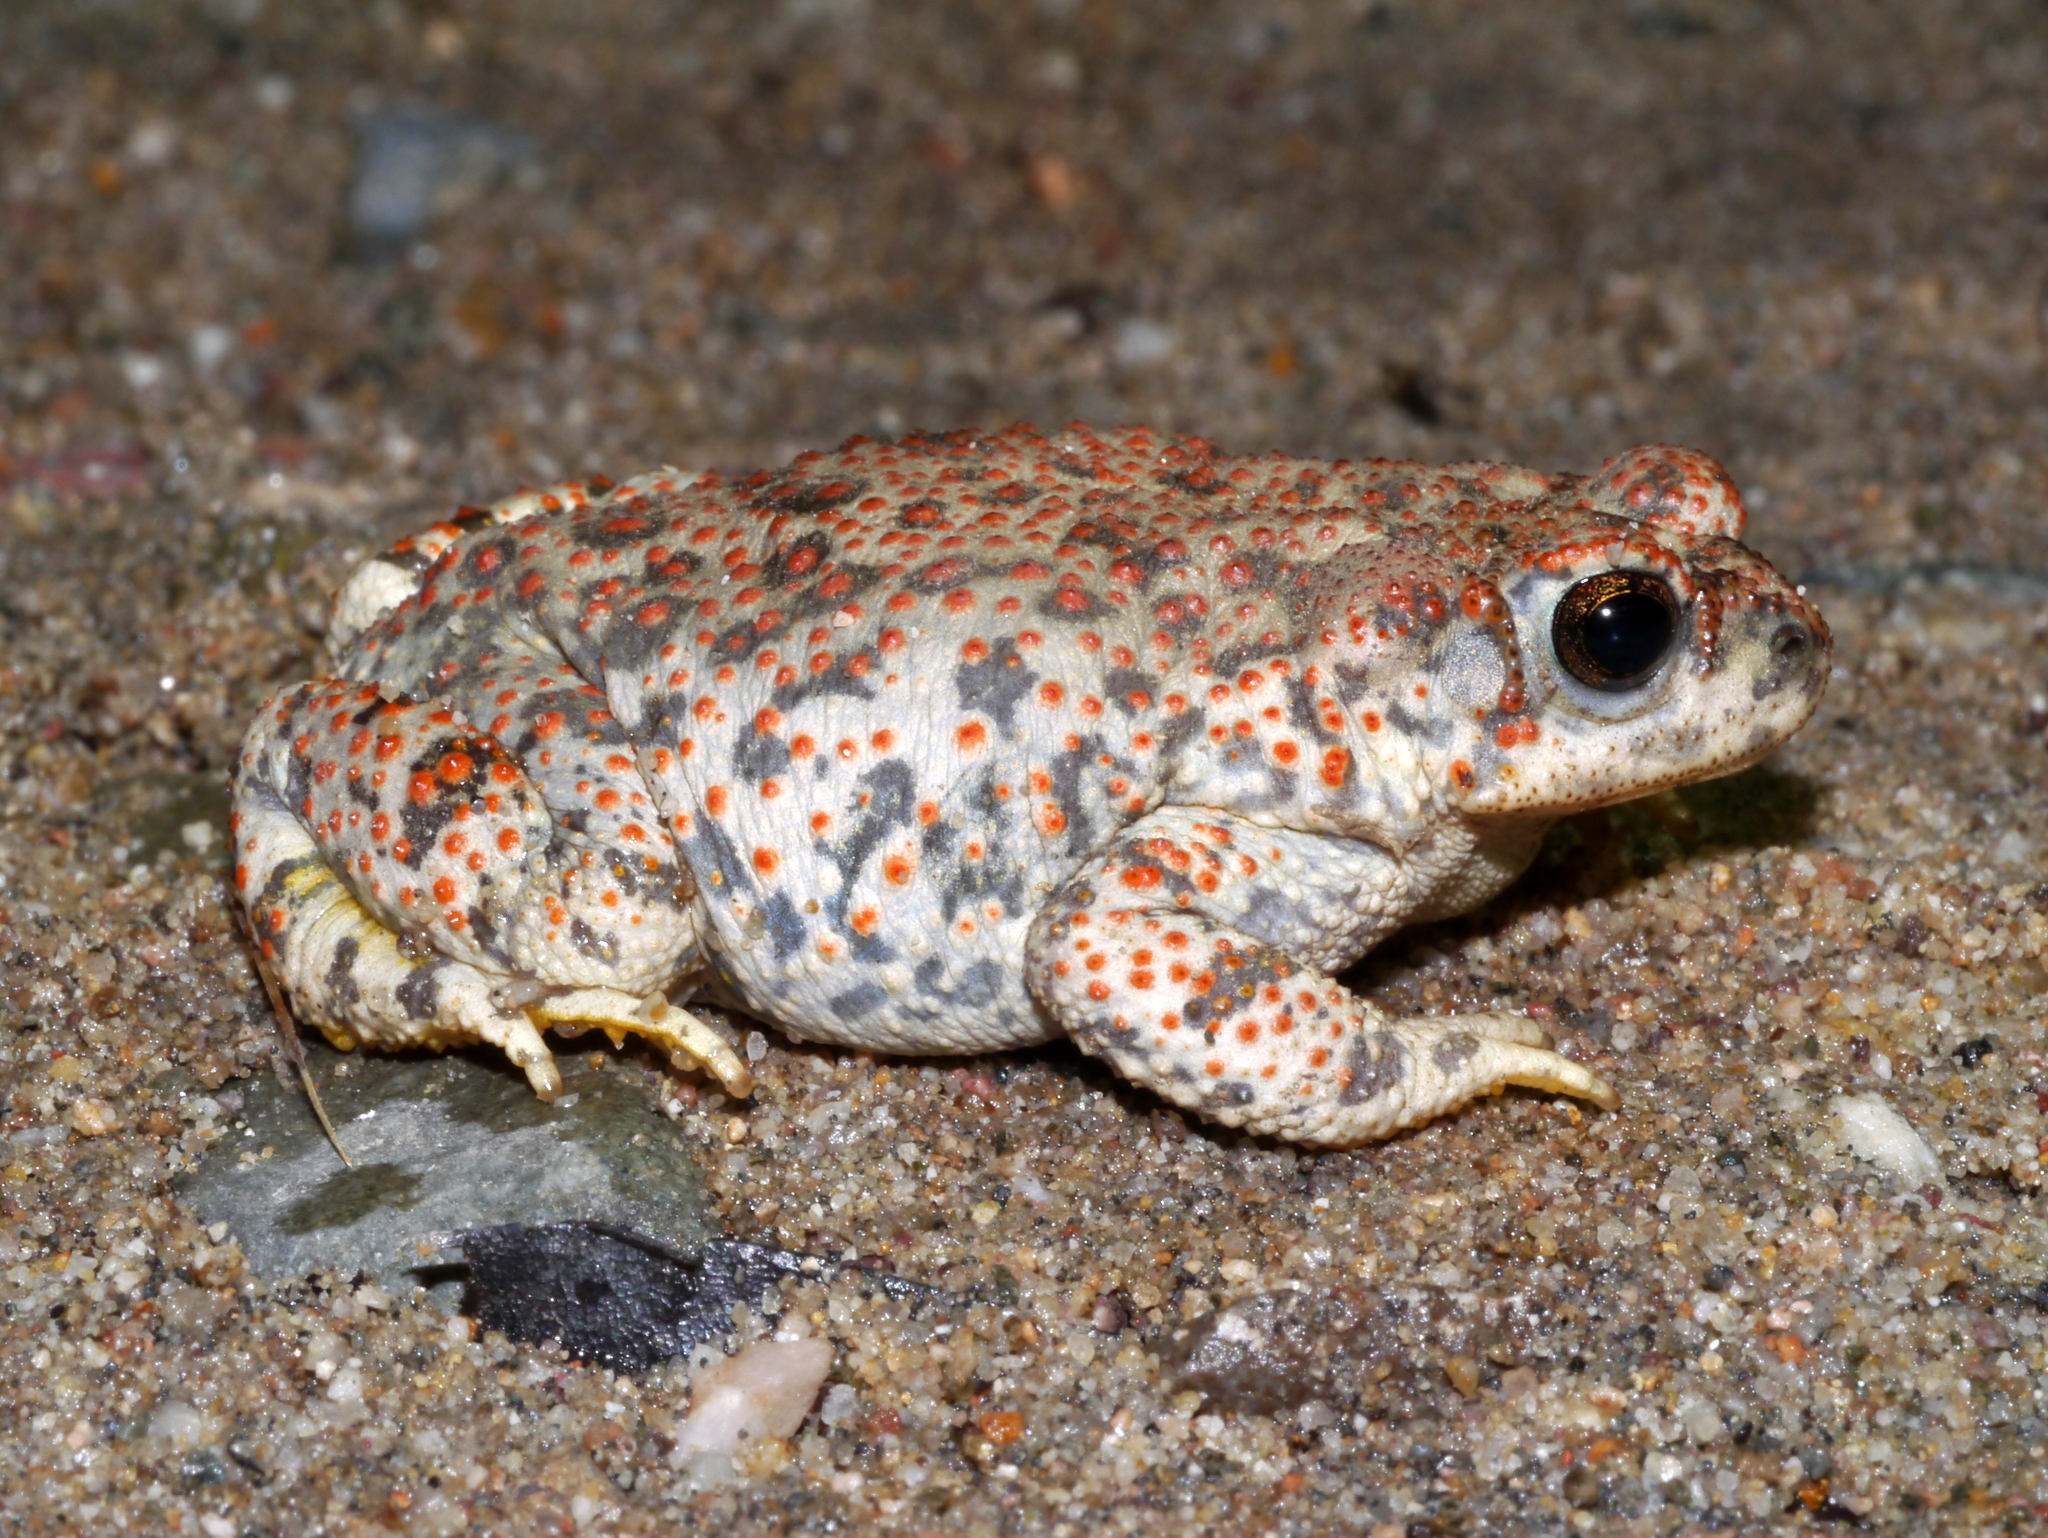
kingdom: Animalia
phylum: Chordata
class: Amphibia
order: Anura
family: Bufonidae
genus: Anaxyrus
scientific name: Anaxyrus punctatus
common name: Red-spotted toad
